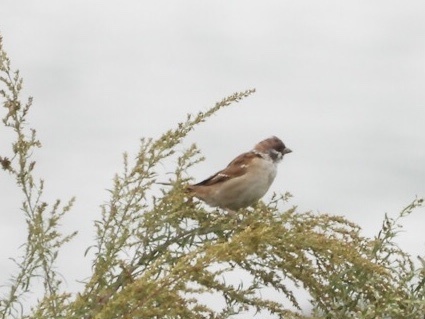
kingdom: Animalia
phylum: Chordata
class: Aves
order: Passeriformes
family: Passeridae
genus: Passer
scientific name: Passer montanus
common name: Eurasian tree sparrow
